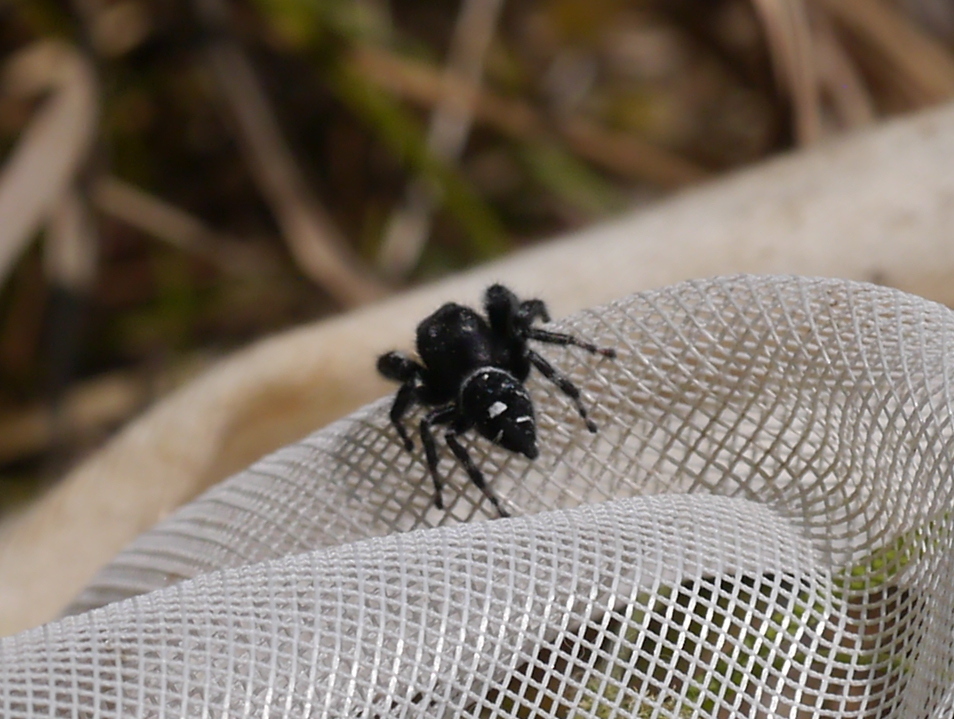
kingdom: Animalia
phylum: Arthropoda
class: Arachnida
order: Araneae
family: Salticidae
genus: Phidippus
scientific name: Phidippus audax
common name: Bold jumper
